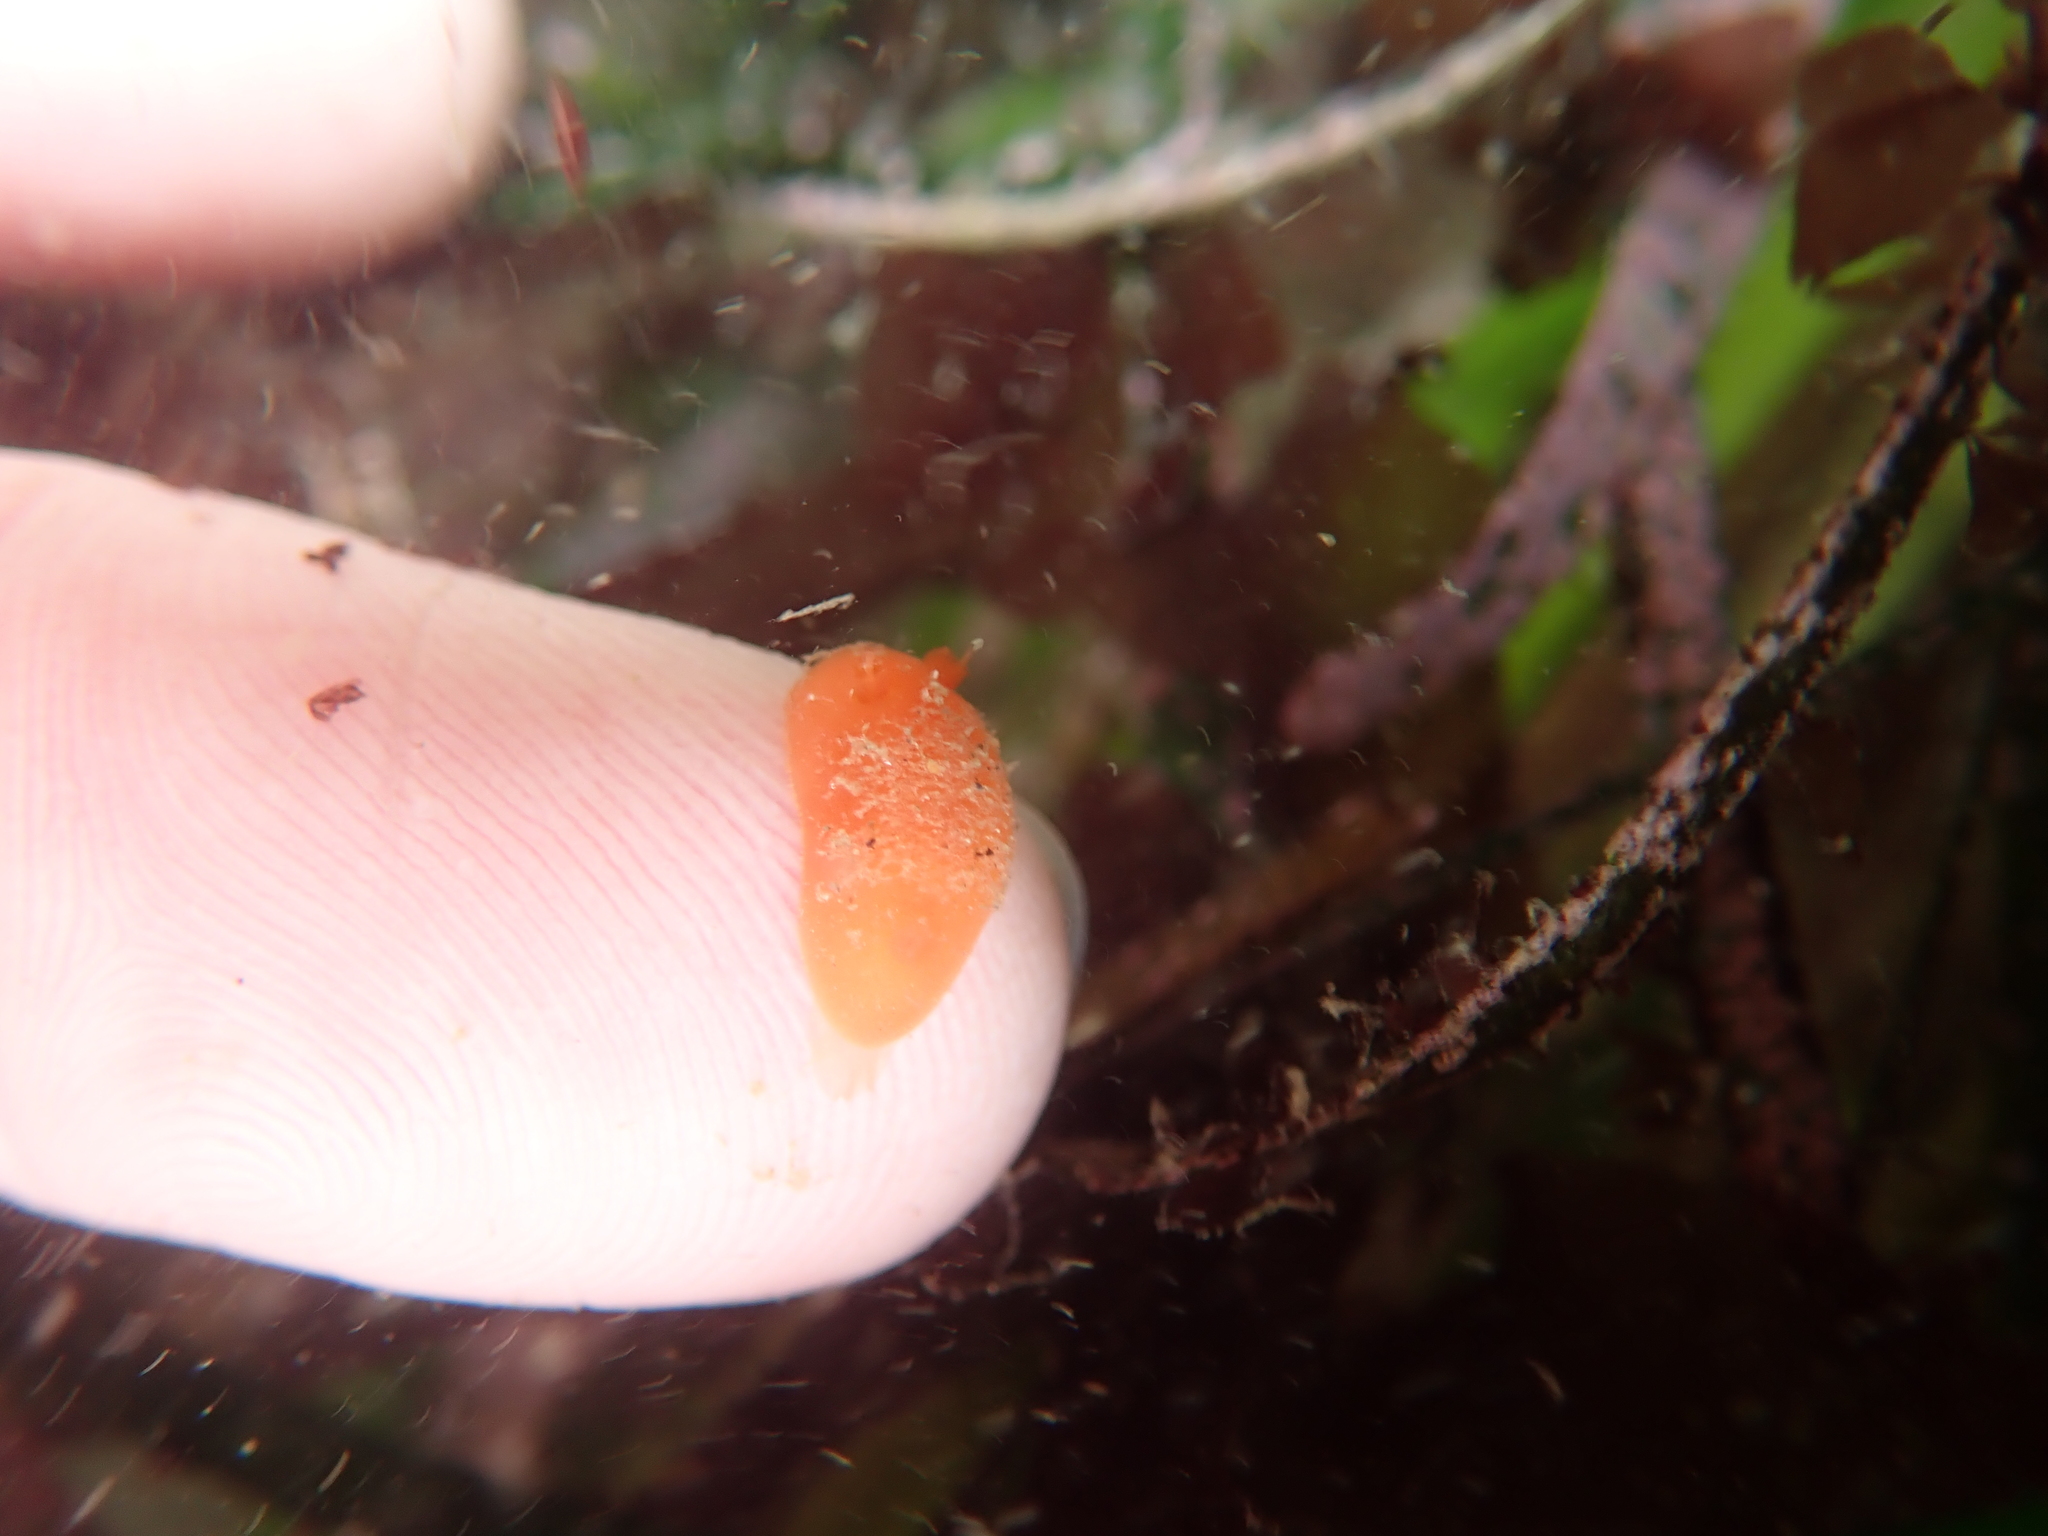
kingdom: Animalia
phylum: Mollusca
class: Gastropoda
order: Nudibranchia
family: Discodorididae
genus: Rostanga
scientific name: Rostanga pulchra
